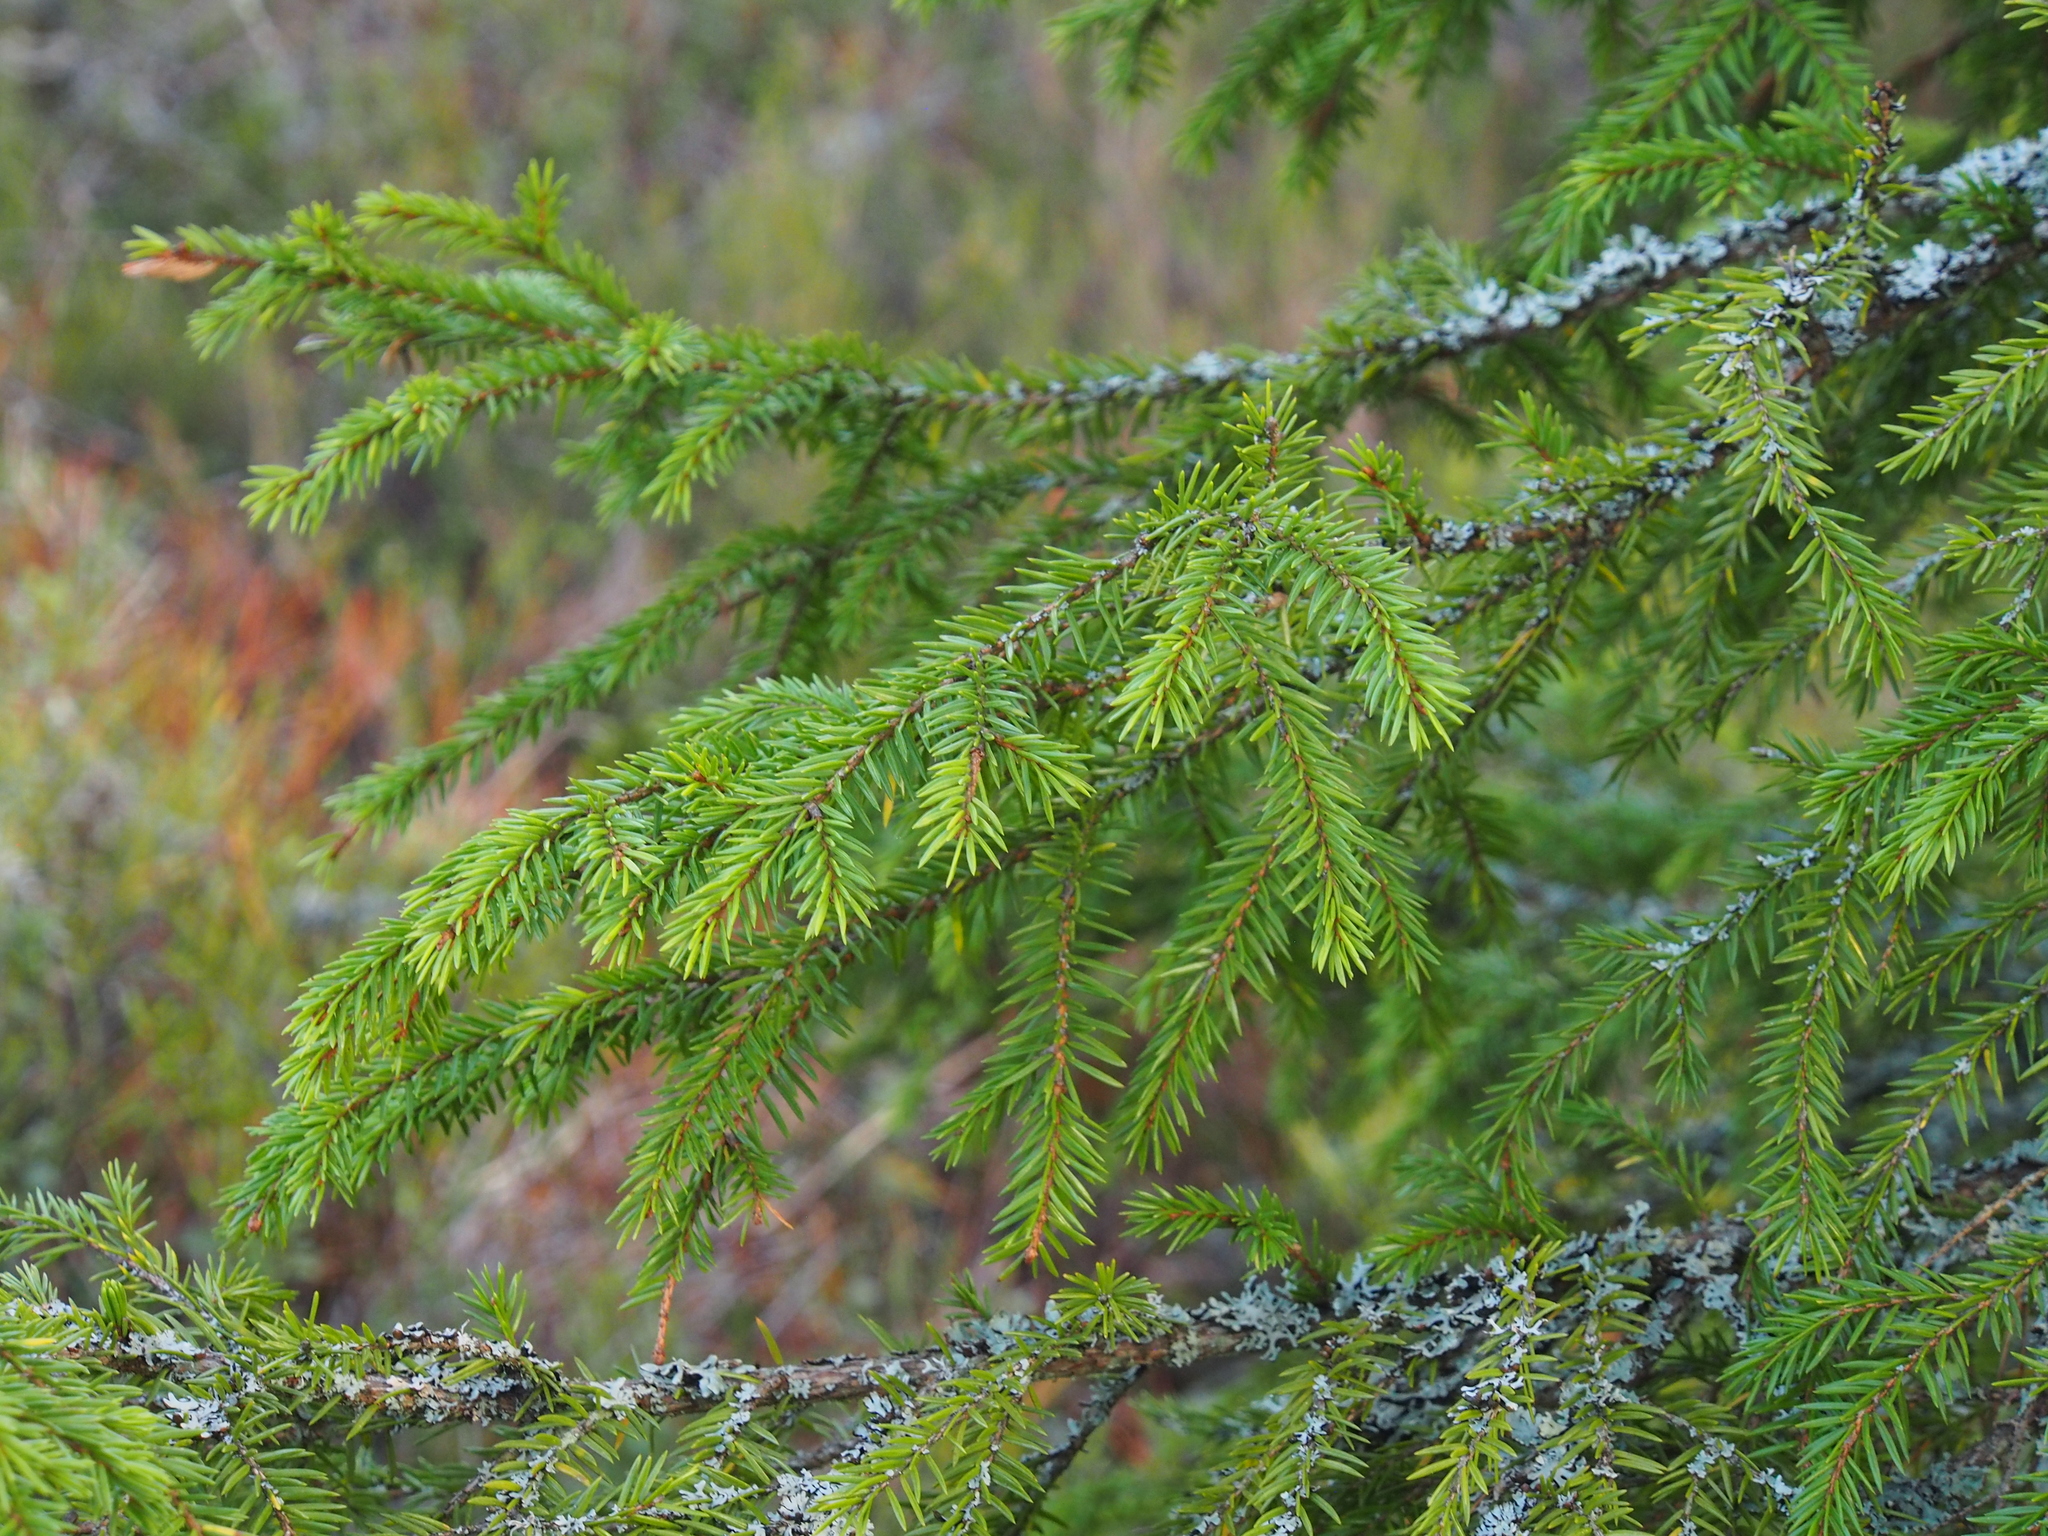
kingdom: Fungi
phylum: Ascomycota
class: Lecanoromycetes
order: Lecanorales
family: Parmeliaceae
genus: Hypogymnia
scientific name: Hypogymnia physodes
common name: Dark crottle
